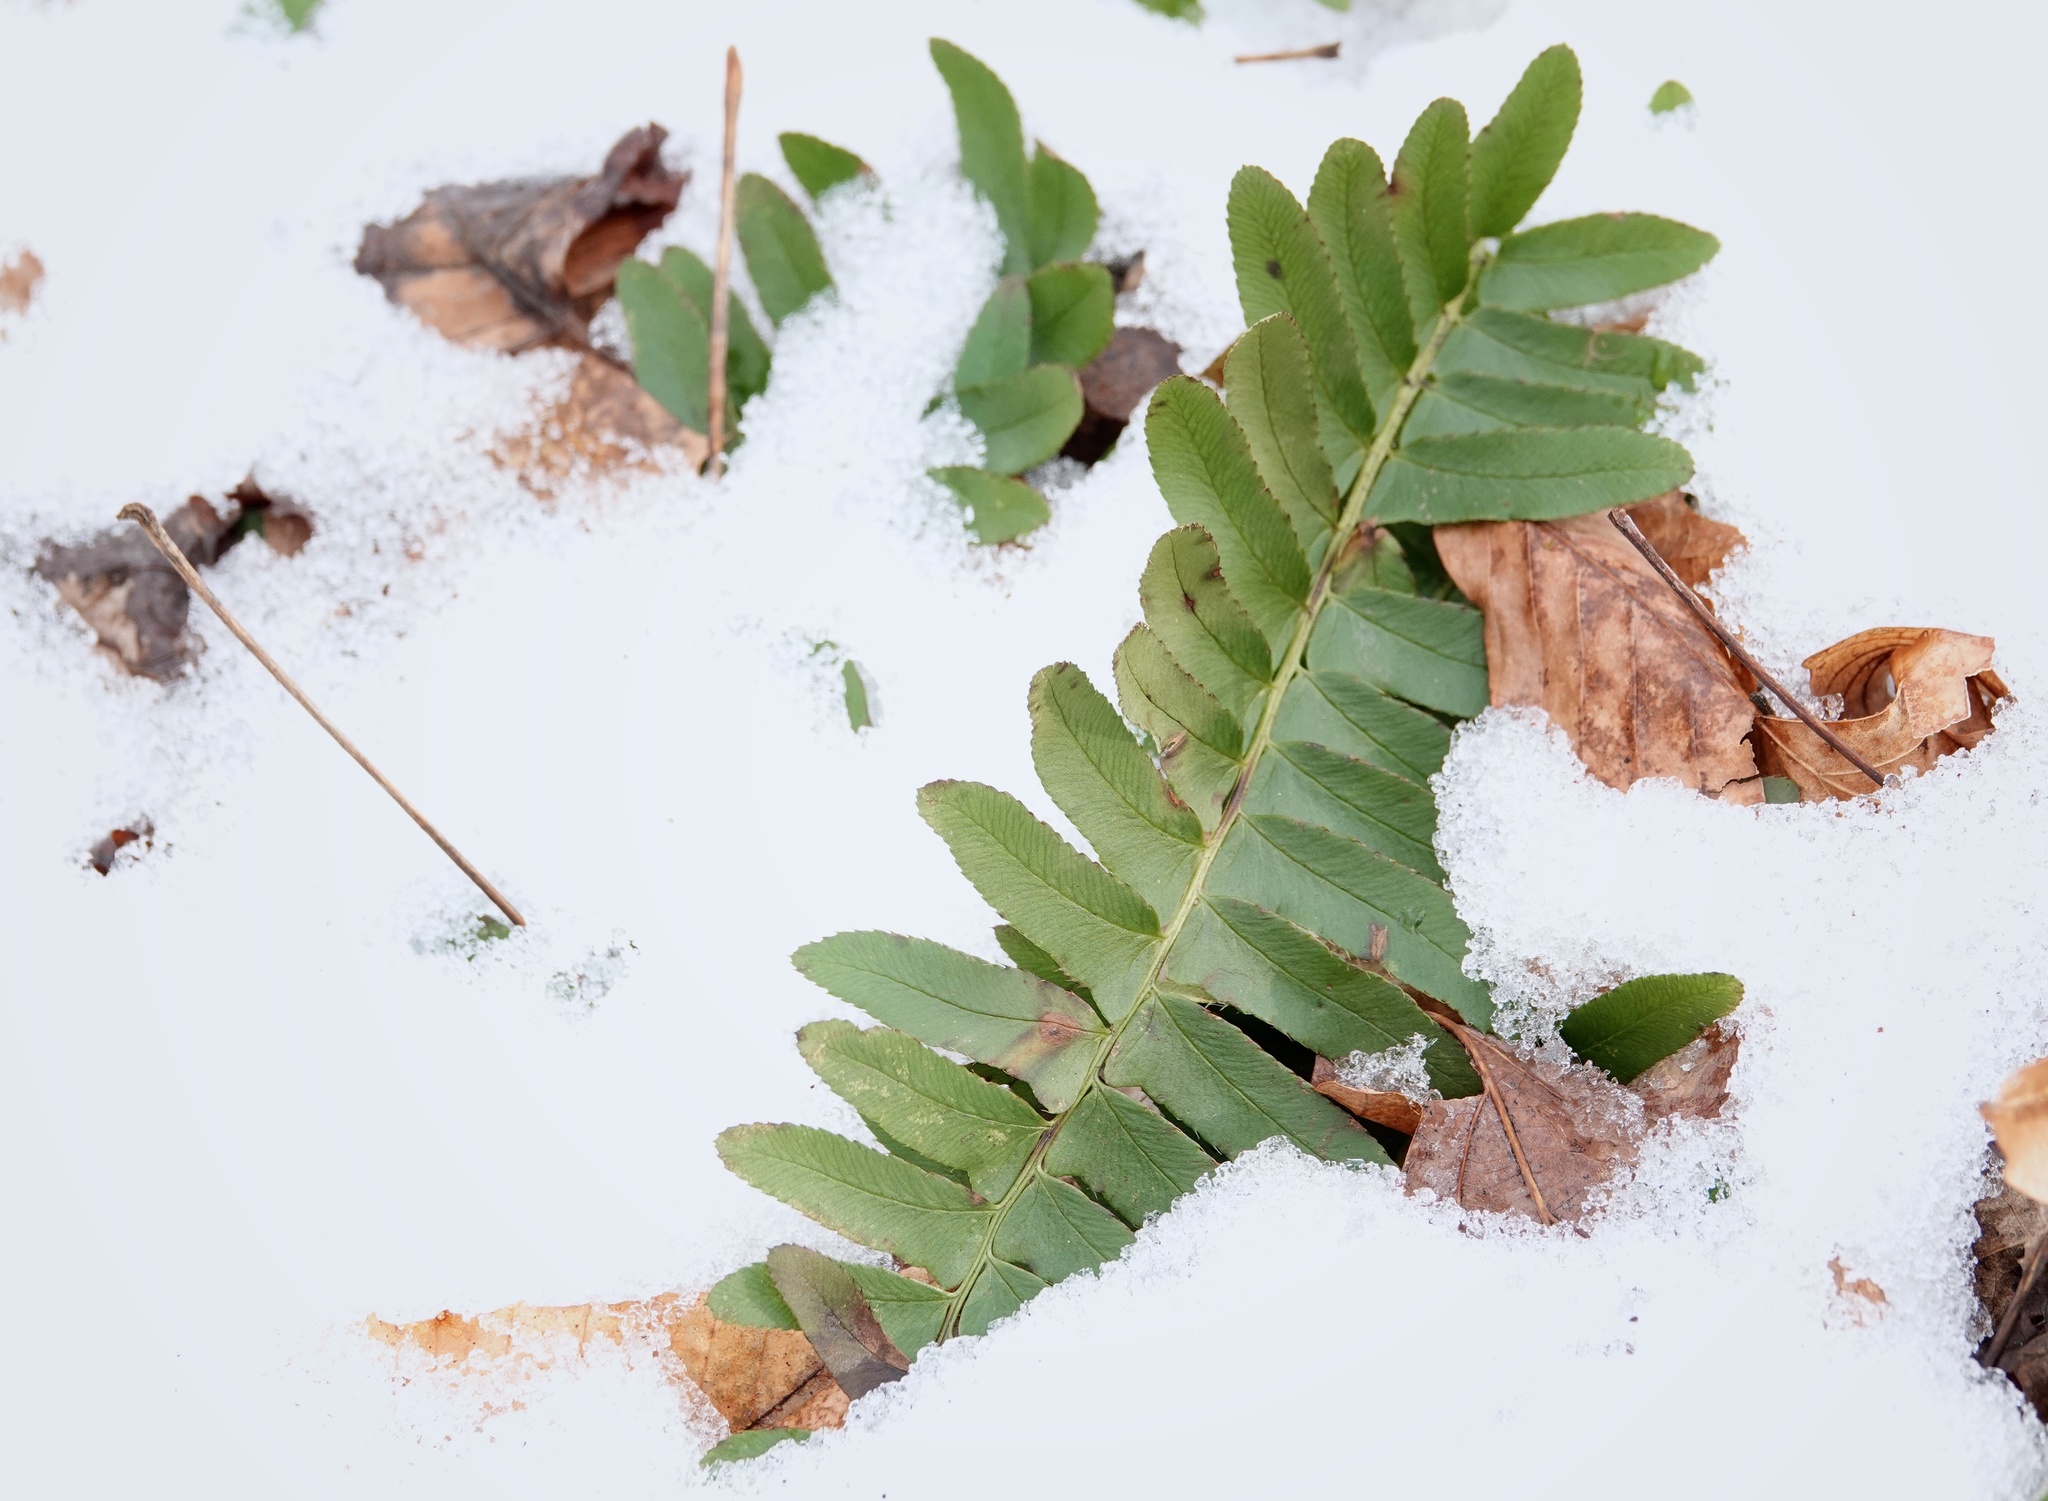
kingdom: Plantae
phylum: Tracheophyta
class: Polypodiopsida
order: Polypodiales
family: Dryopteridaceae
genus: Polystichum
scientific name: Polystichum acrostichoides
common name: Christmas fern
